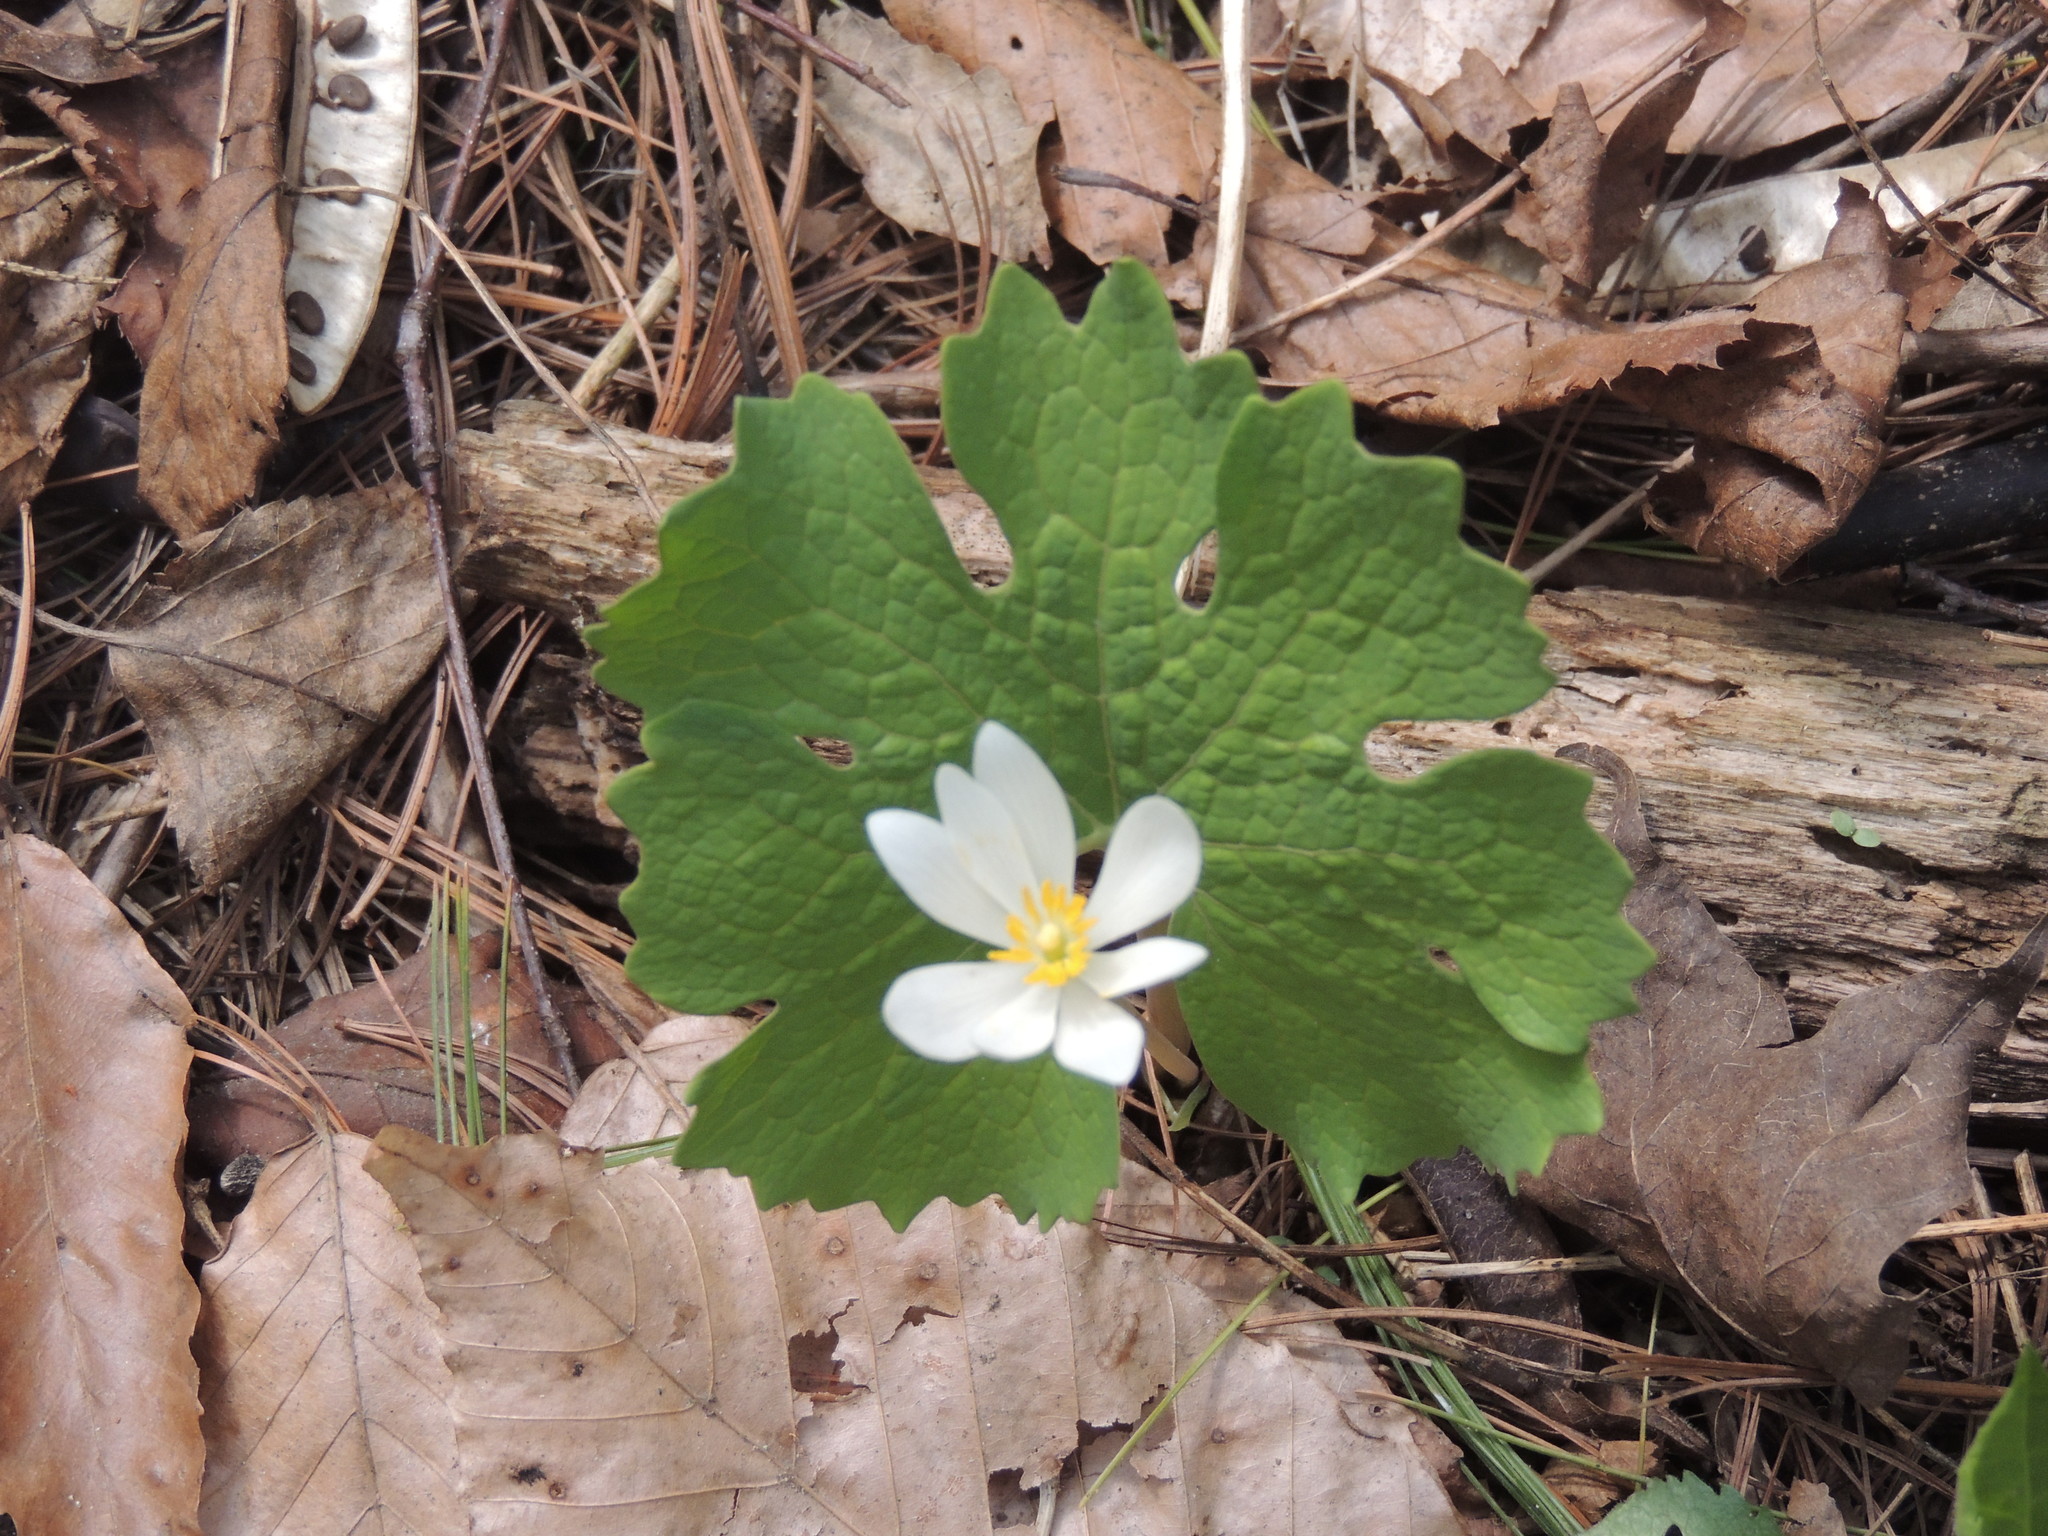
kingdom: Plantae
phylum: Tracheophyta
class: Magnoliopsida
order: Ranunculales
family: Papaveraceae
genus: Sanguinaria
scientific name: Sanguinaria canadensis
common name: Bloodroot
